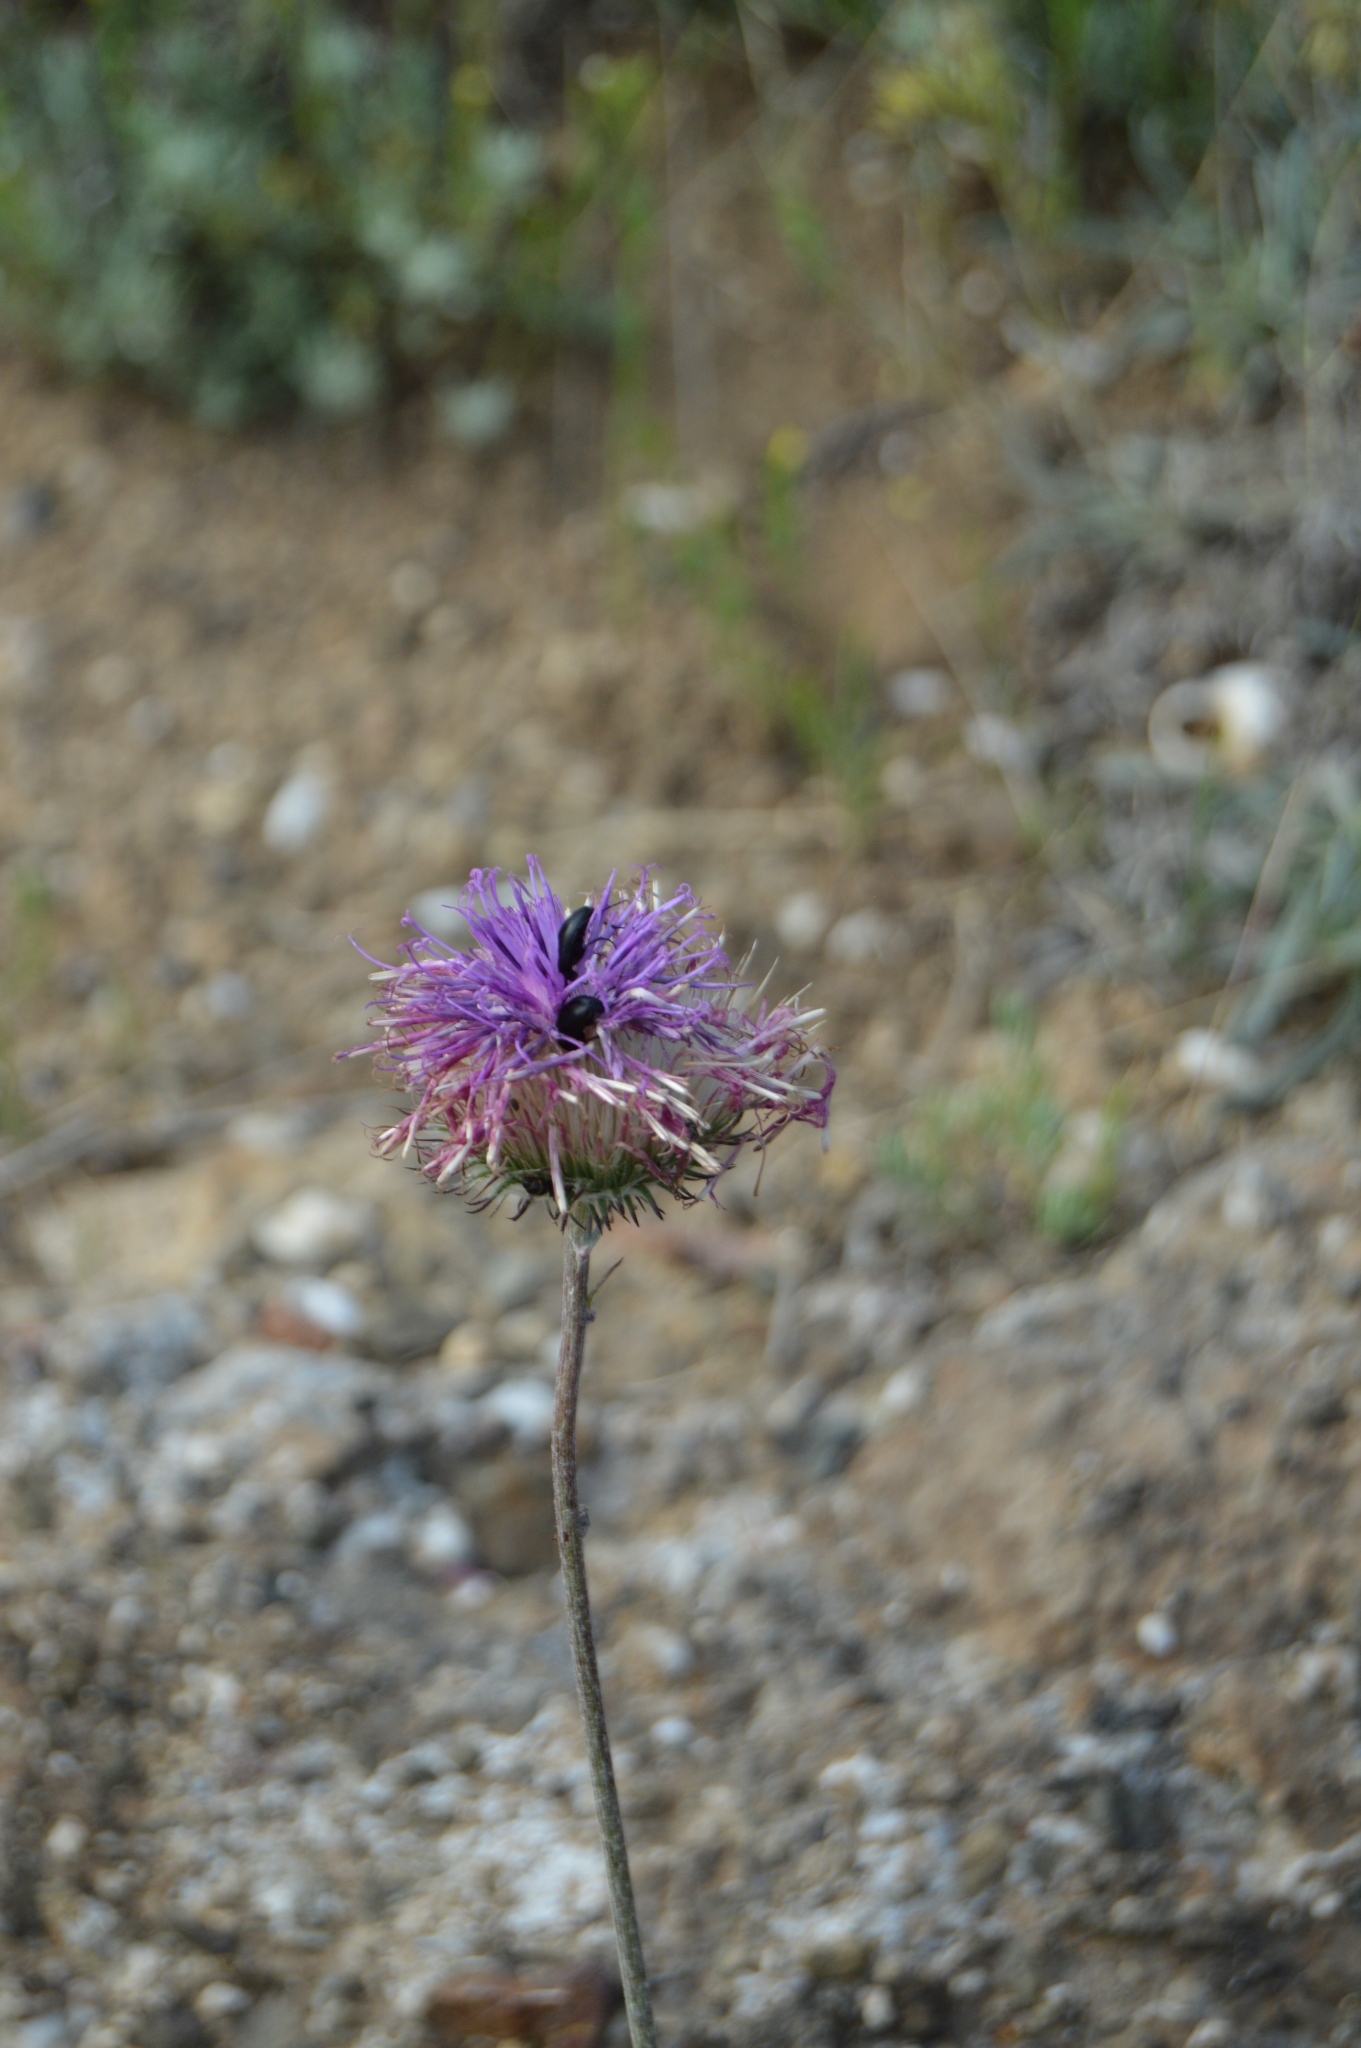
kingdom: Plantae
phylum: Tracheophyta
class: Magnoliopsida
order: Asterales
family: Asteraceae
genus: Jurinea
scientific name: Jurinea roegneri
